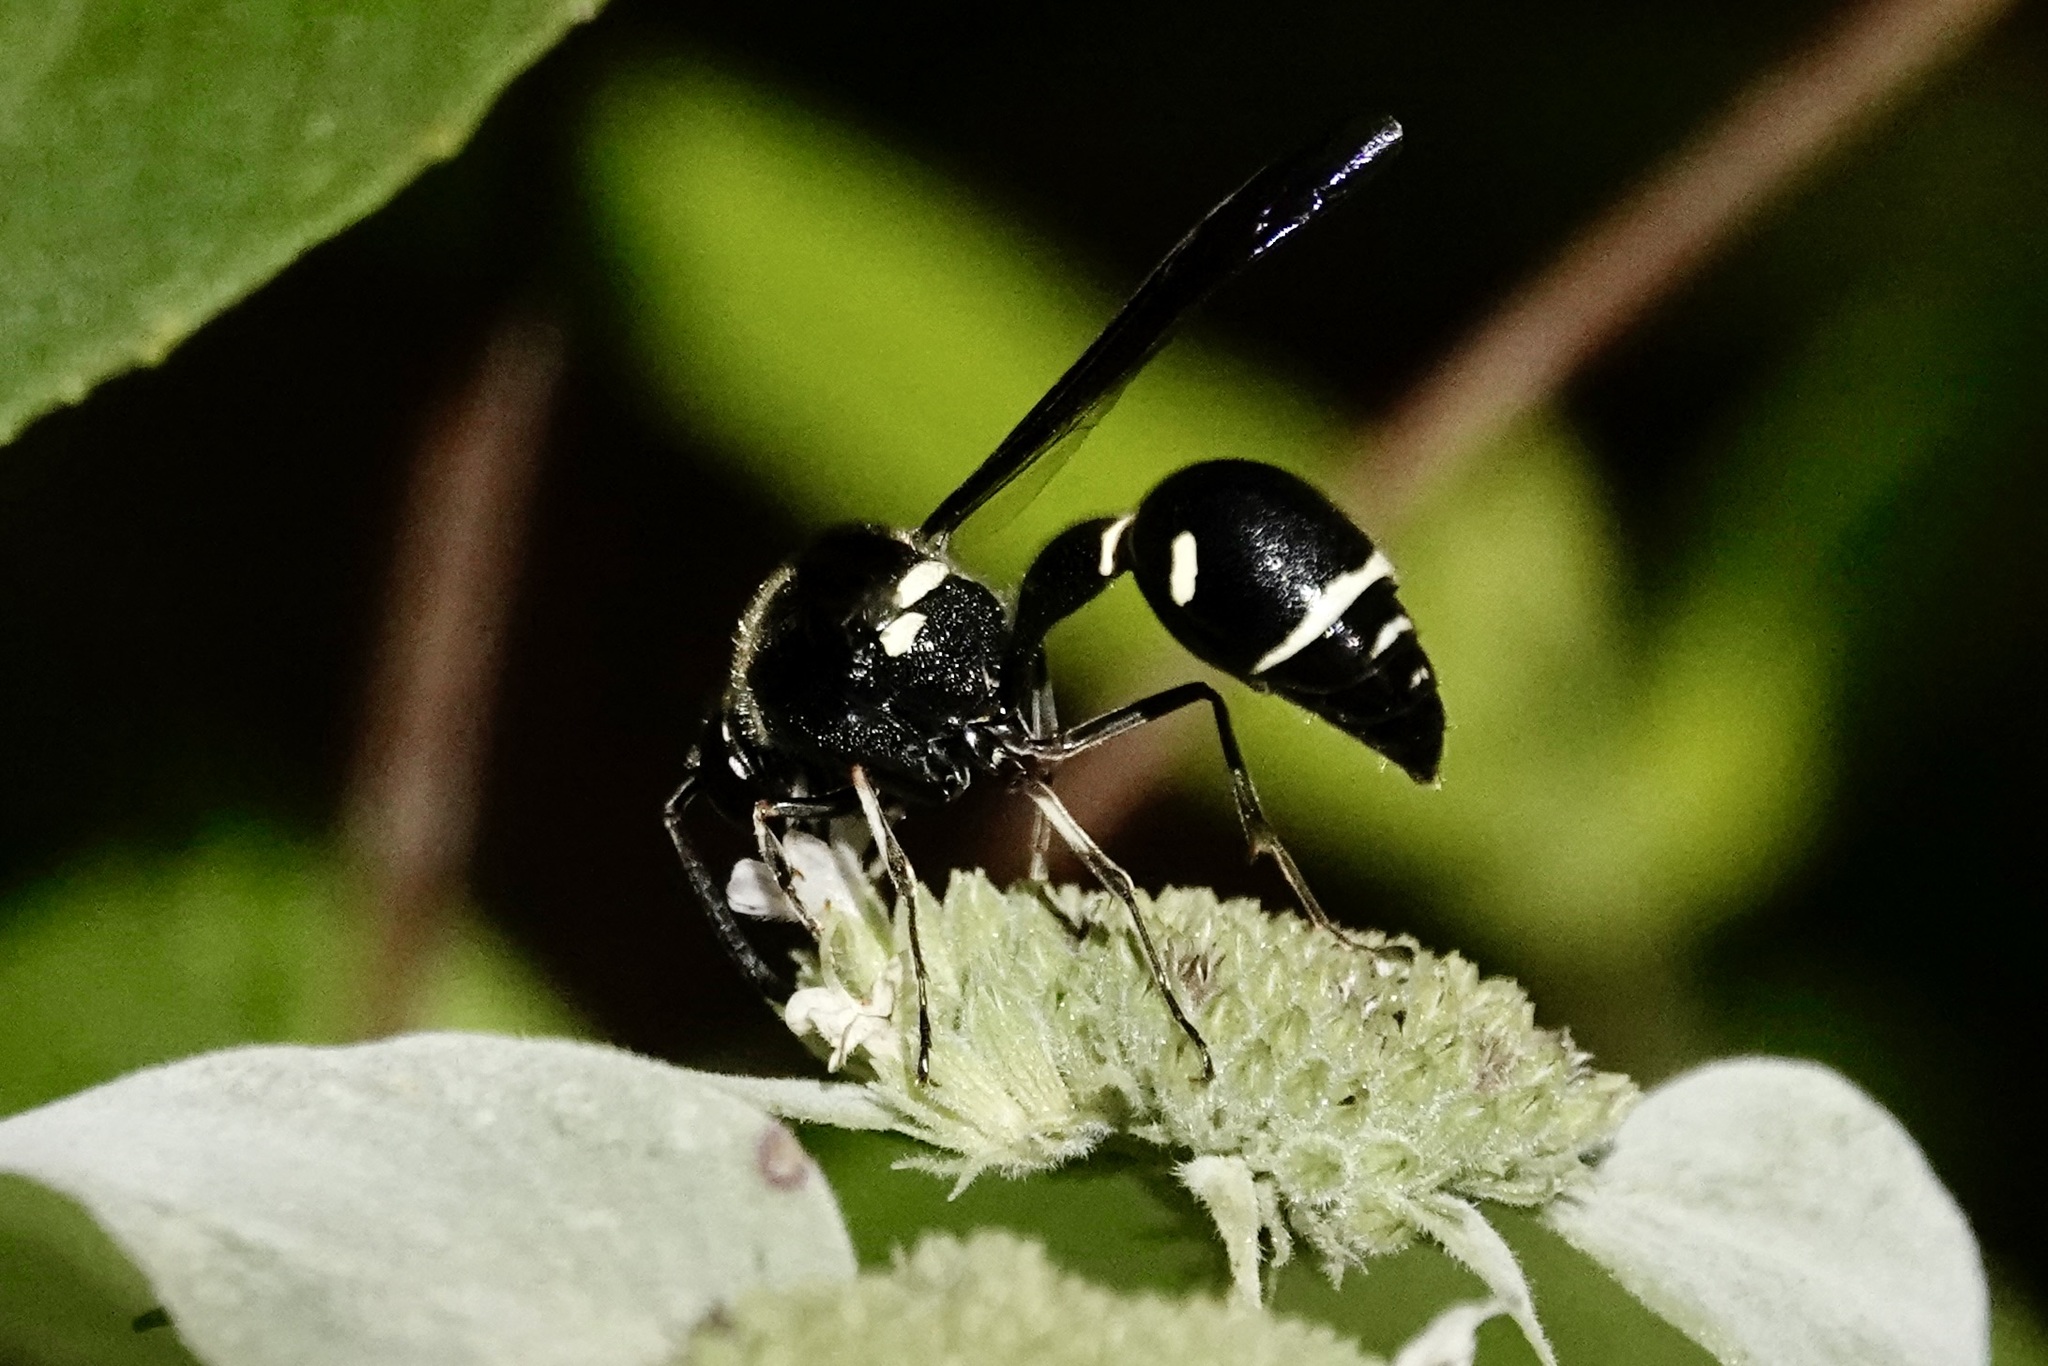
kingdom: Animalia
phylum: Arthropoda
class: Insecta
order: Hymenoptera
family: Vespidae
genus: Eumenes
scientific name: Eumenes fraternus
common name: Fraternal potter wasp
